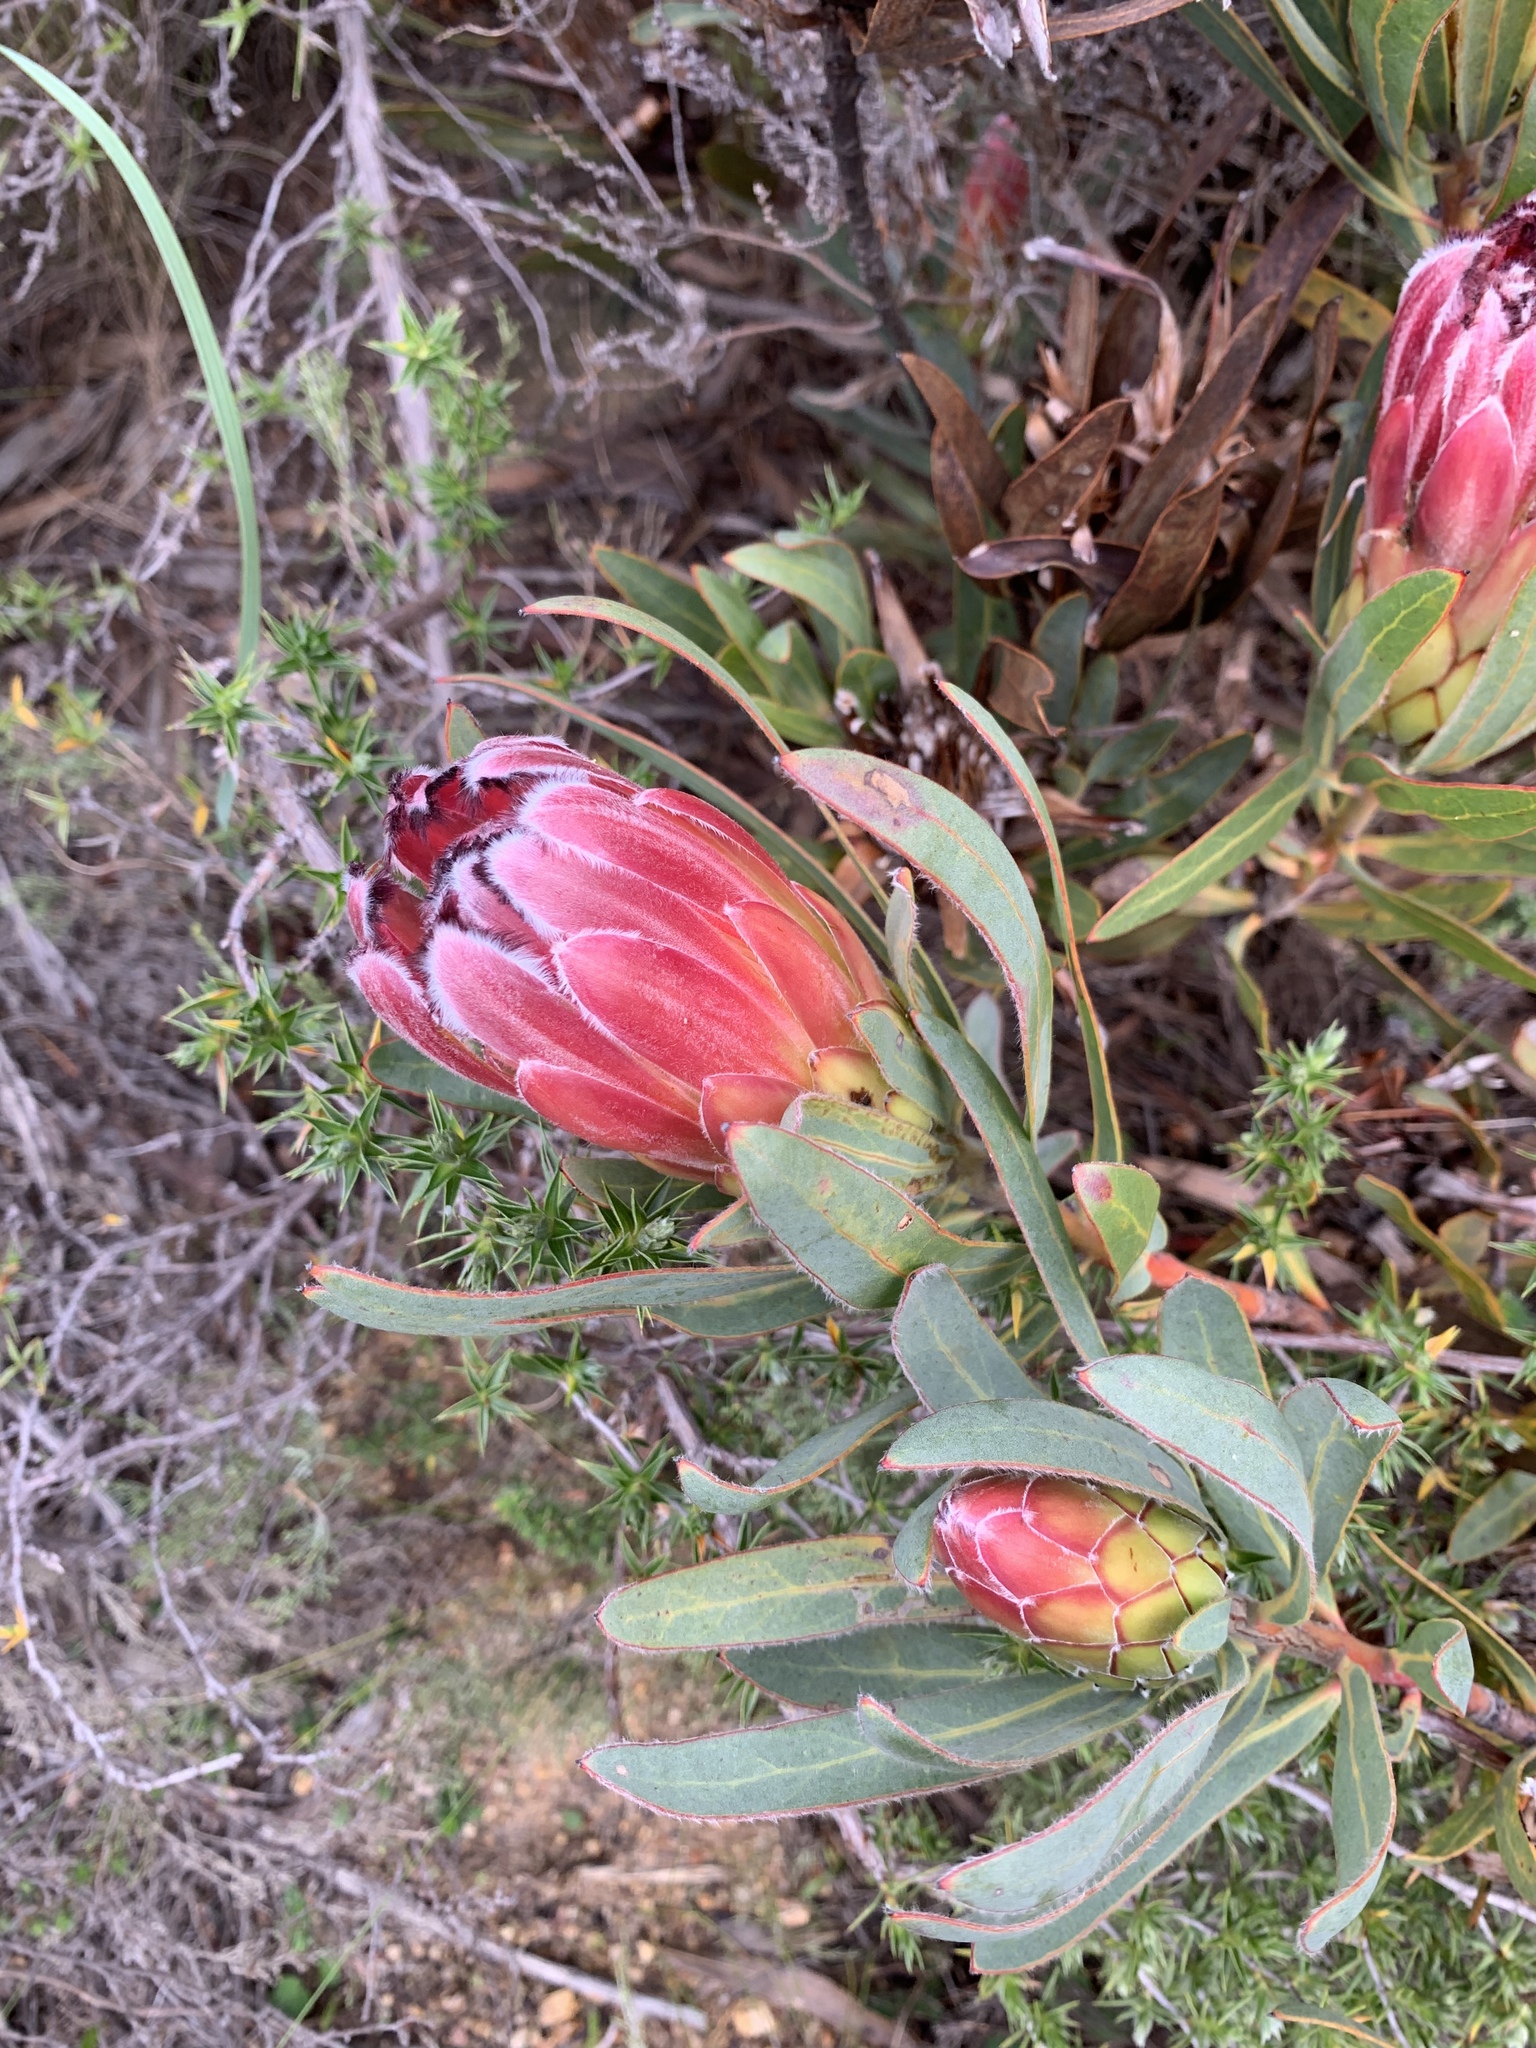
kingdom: Plantae
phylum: Tracheophyta
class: Magnoliopsida
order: Proteales
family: Proteaceae
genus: Protea
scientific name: Protea burchellii
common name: Burchell's sugarbush
